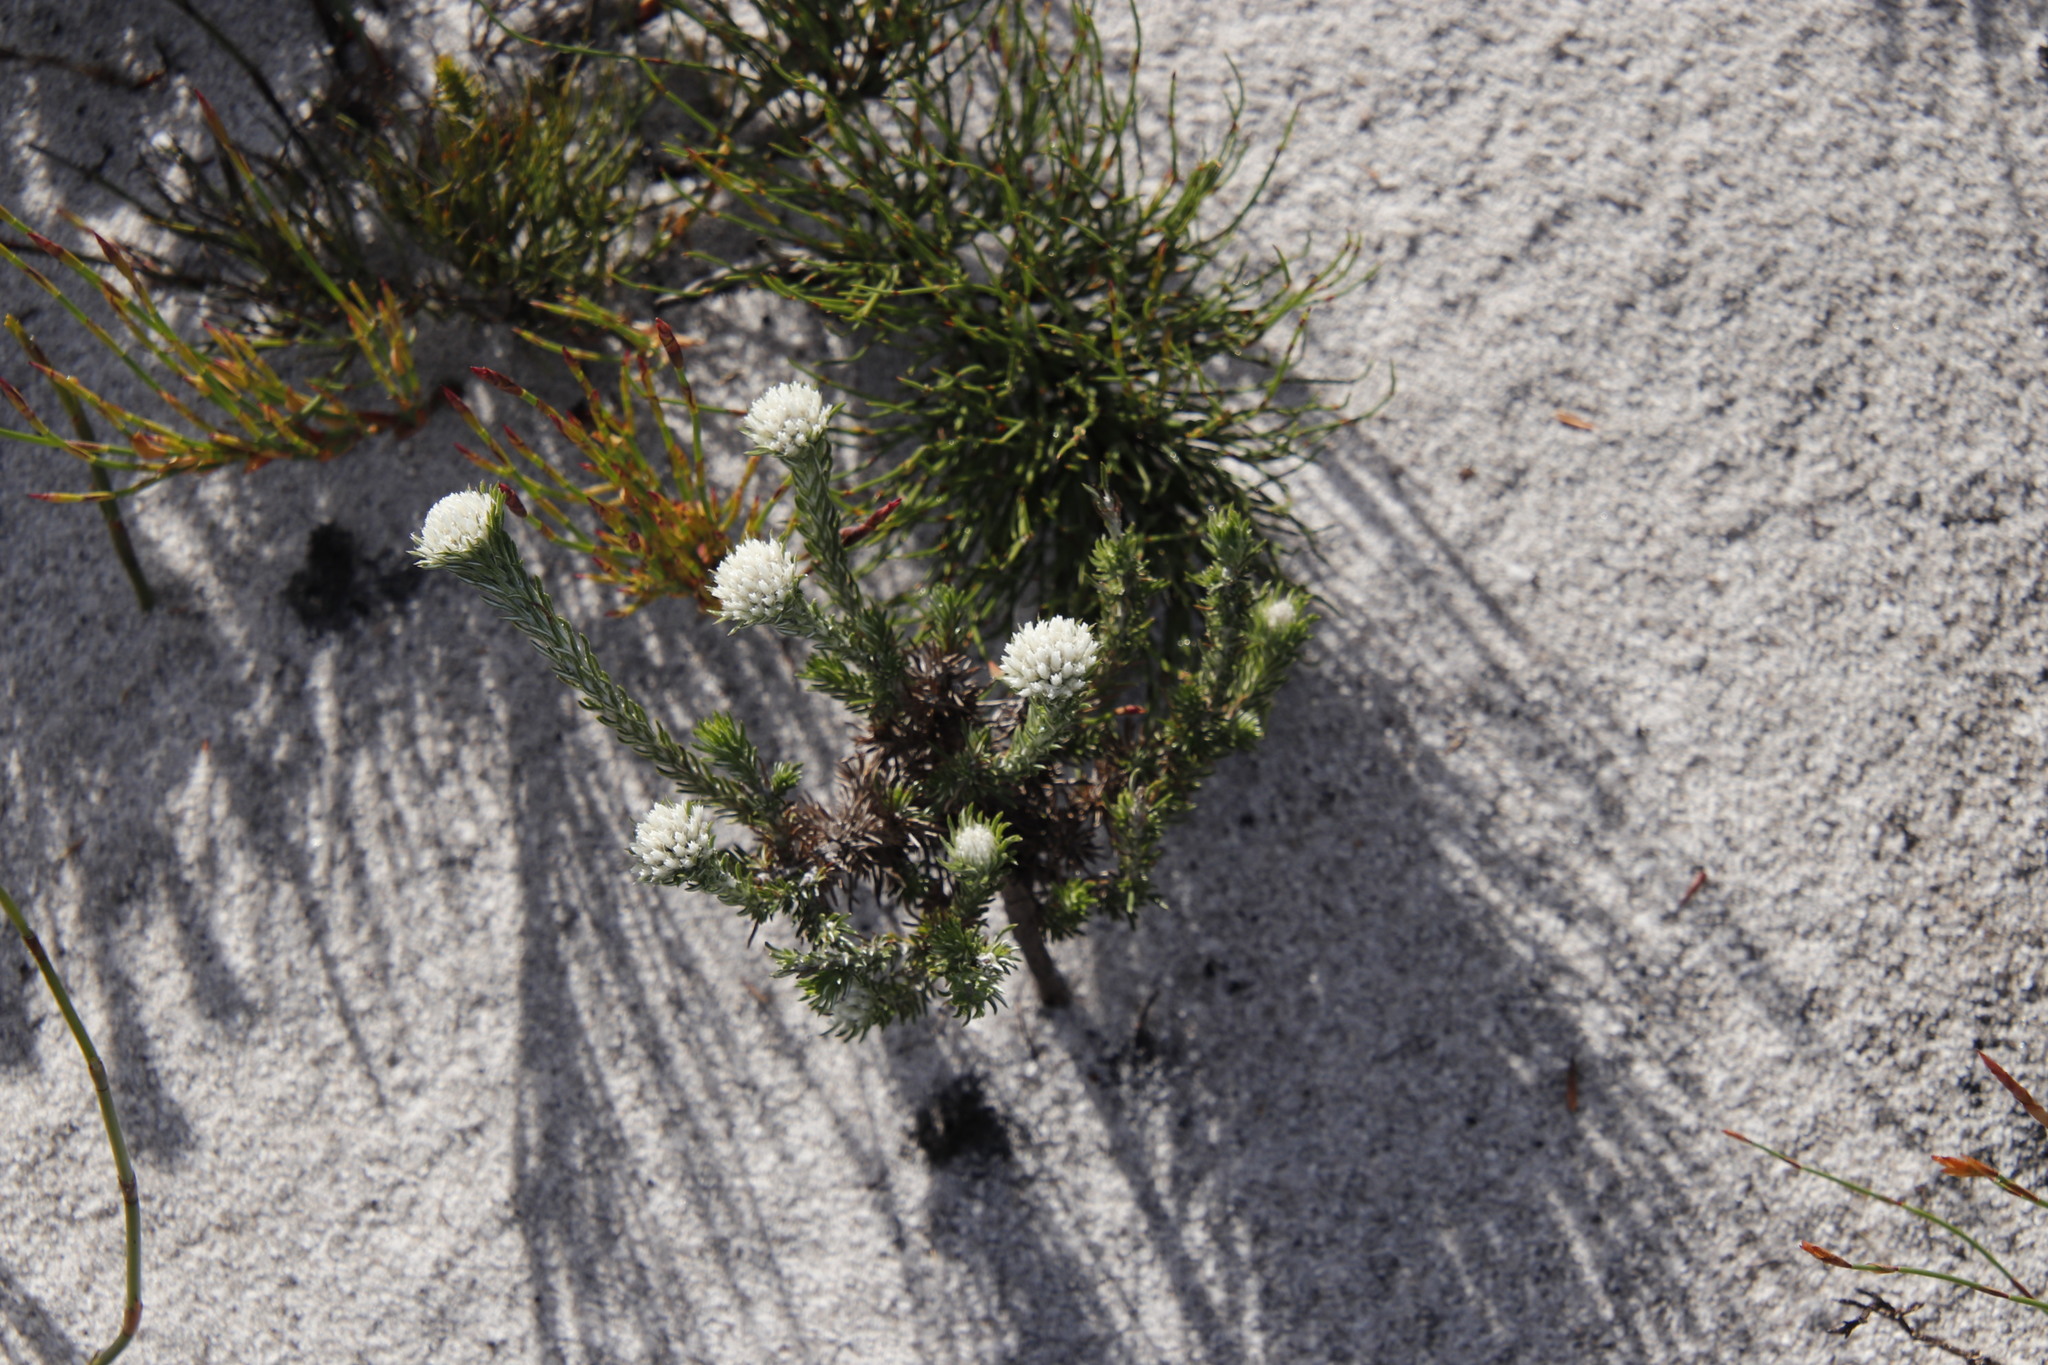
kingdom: Plantae
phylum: Tracheophyta
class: Magnoliopsida
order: Asterales
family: Asteraceae
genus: Metalasia
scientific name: Metalasia compacta
